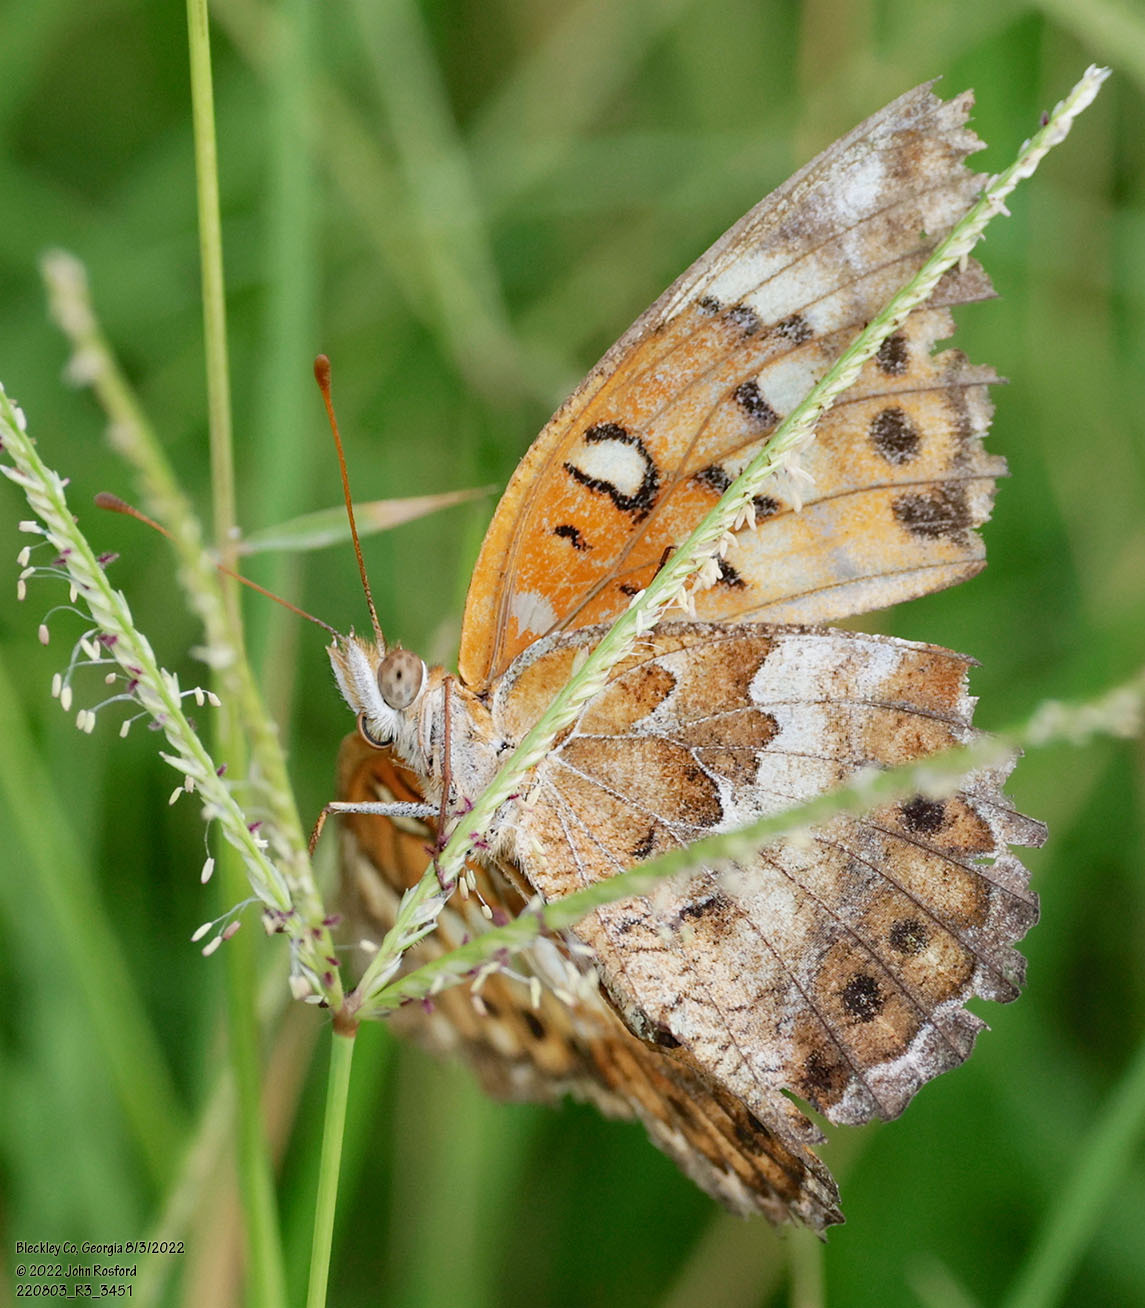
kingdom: Animalia
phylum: Arthropoda
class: Insecta
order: Lepidoptera
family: Nymphalidae
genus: Euptoieta
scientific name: Euptoieta claudia
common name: Variegated fritillary
